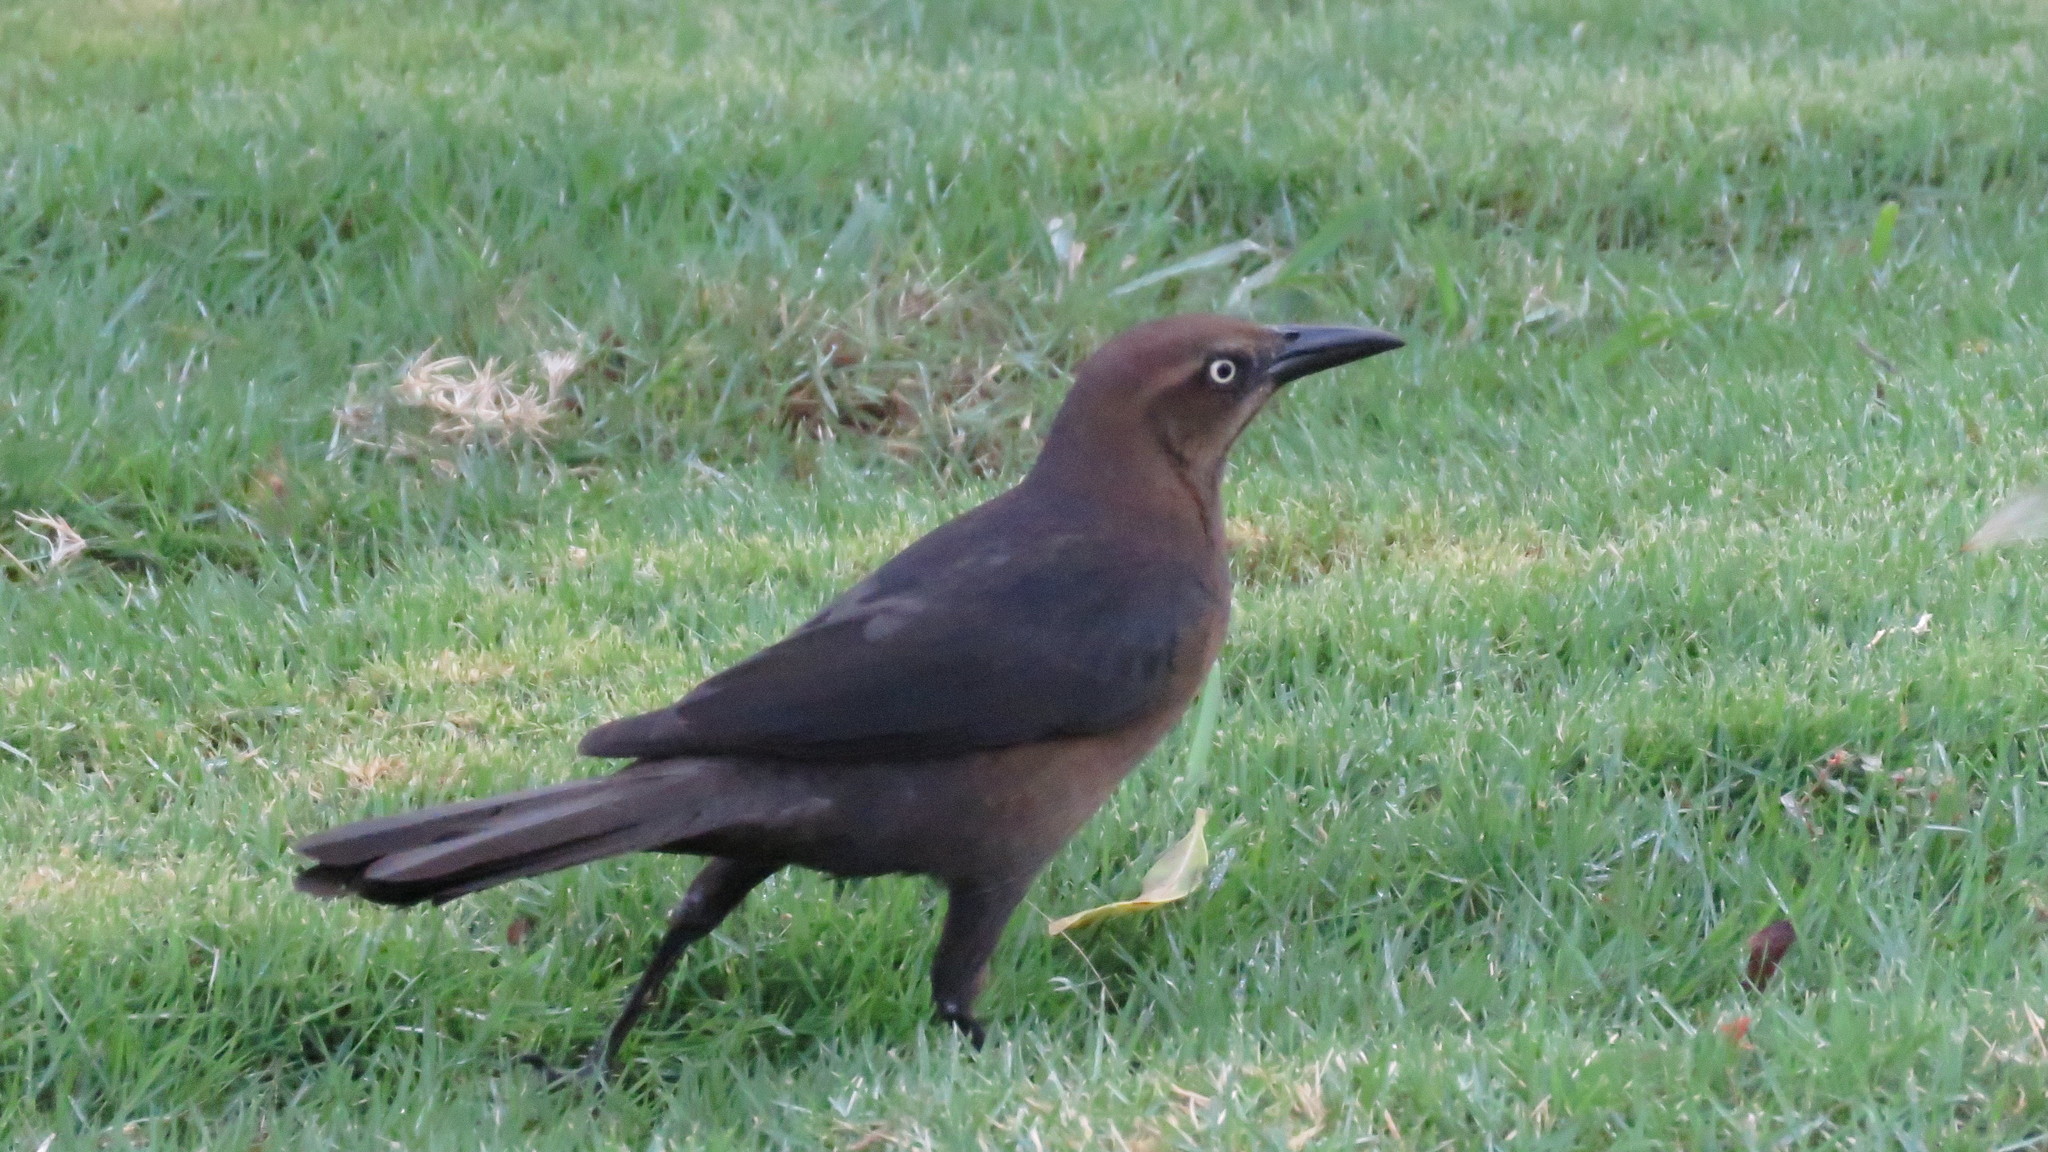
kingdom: Animalia
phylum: Chordata
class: Aves
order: Passeriformes
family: Icteridae
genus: Quiscalus
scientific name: Quiscalus mexicanus
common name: Great-tailed grackle
